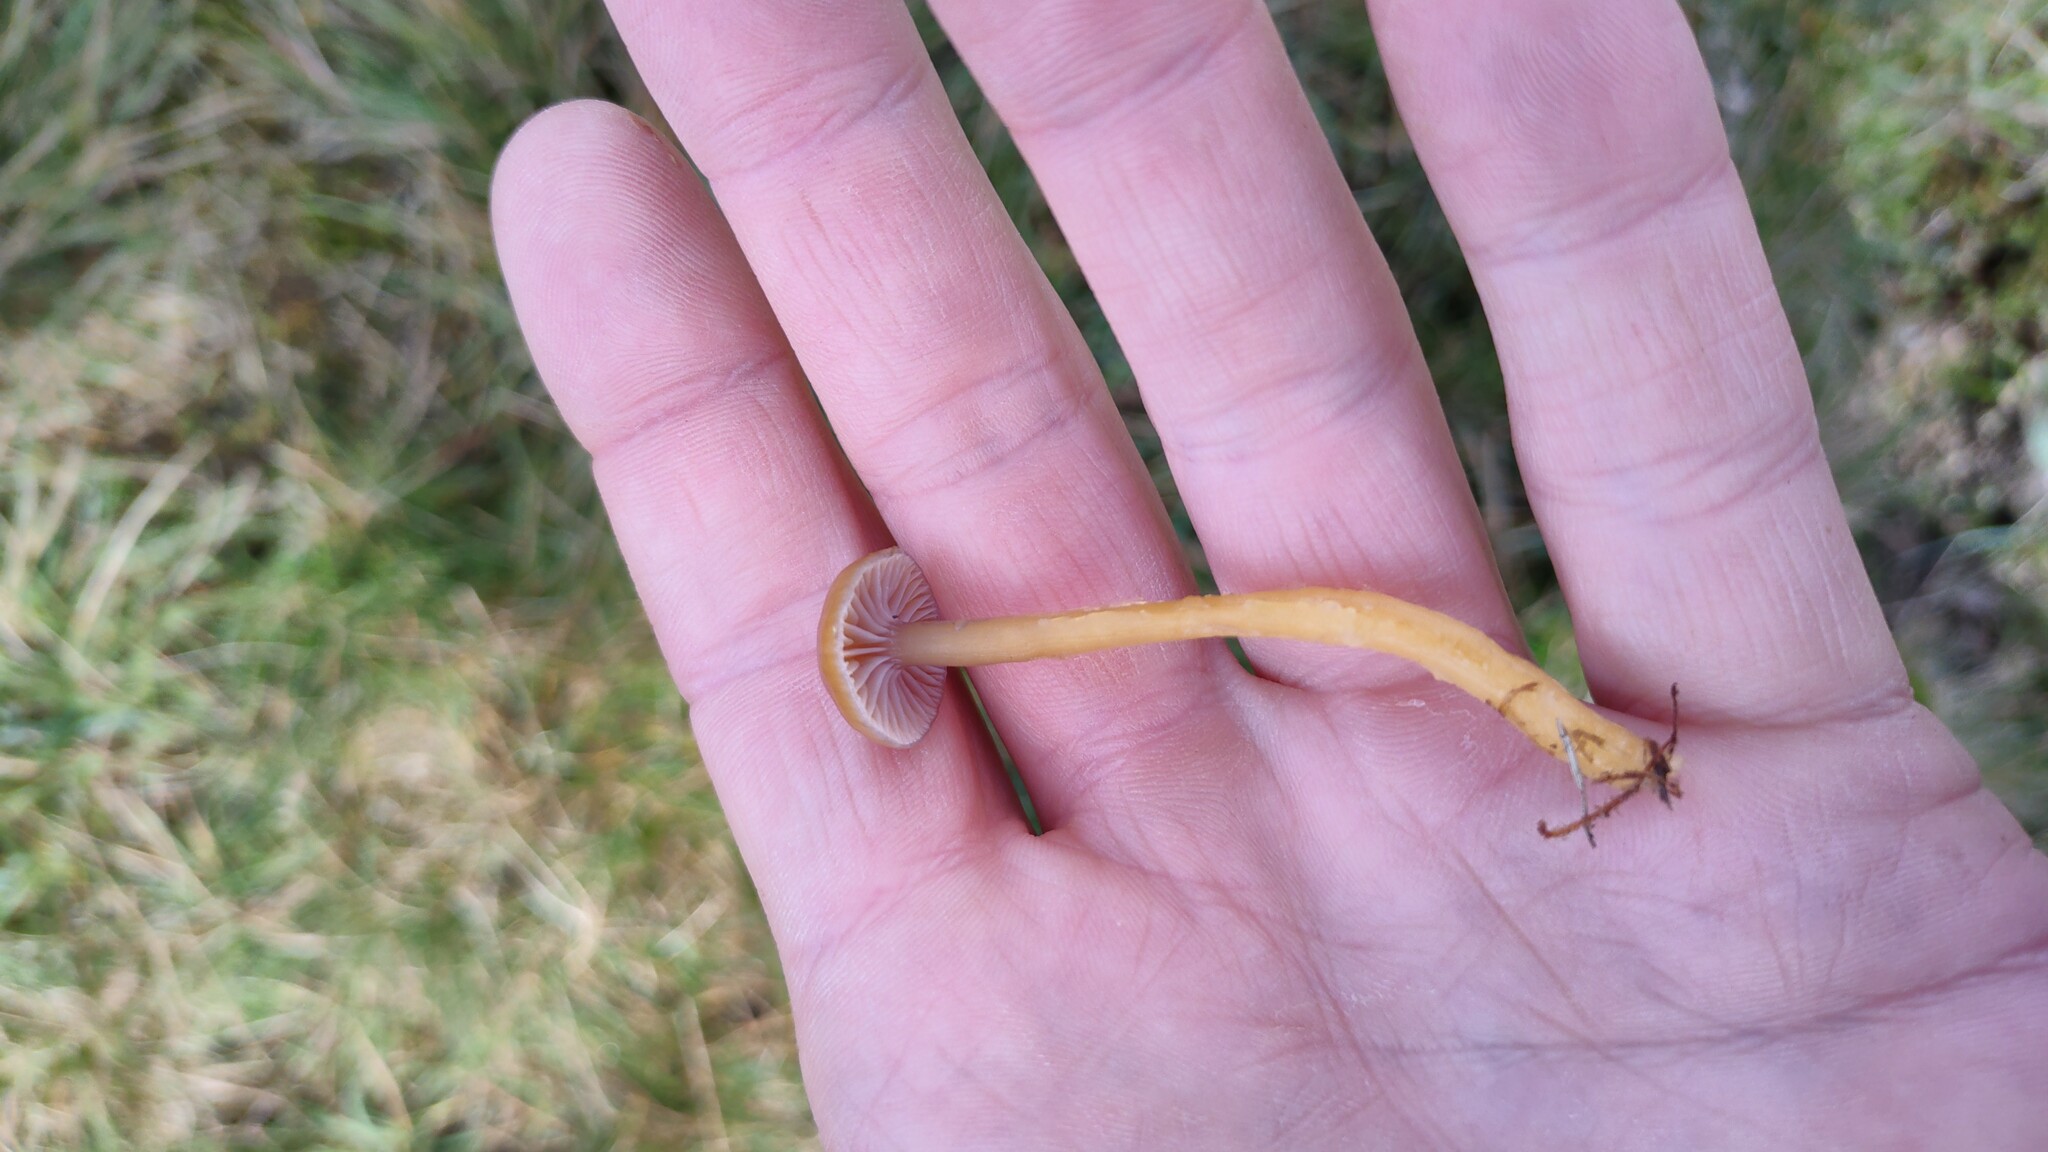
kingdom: Fungi
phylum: Basidiomycota
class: Agaricomycetes
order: Agaricales
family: Hygrophoraceae
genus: Gliophorus
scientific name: Gliophorus laetus
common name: Heath waxcap
